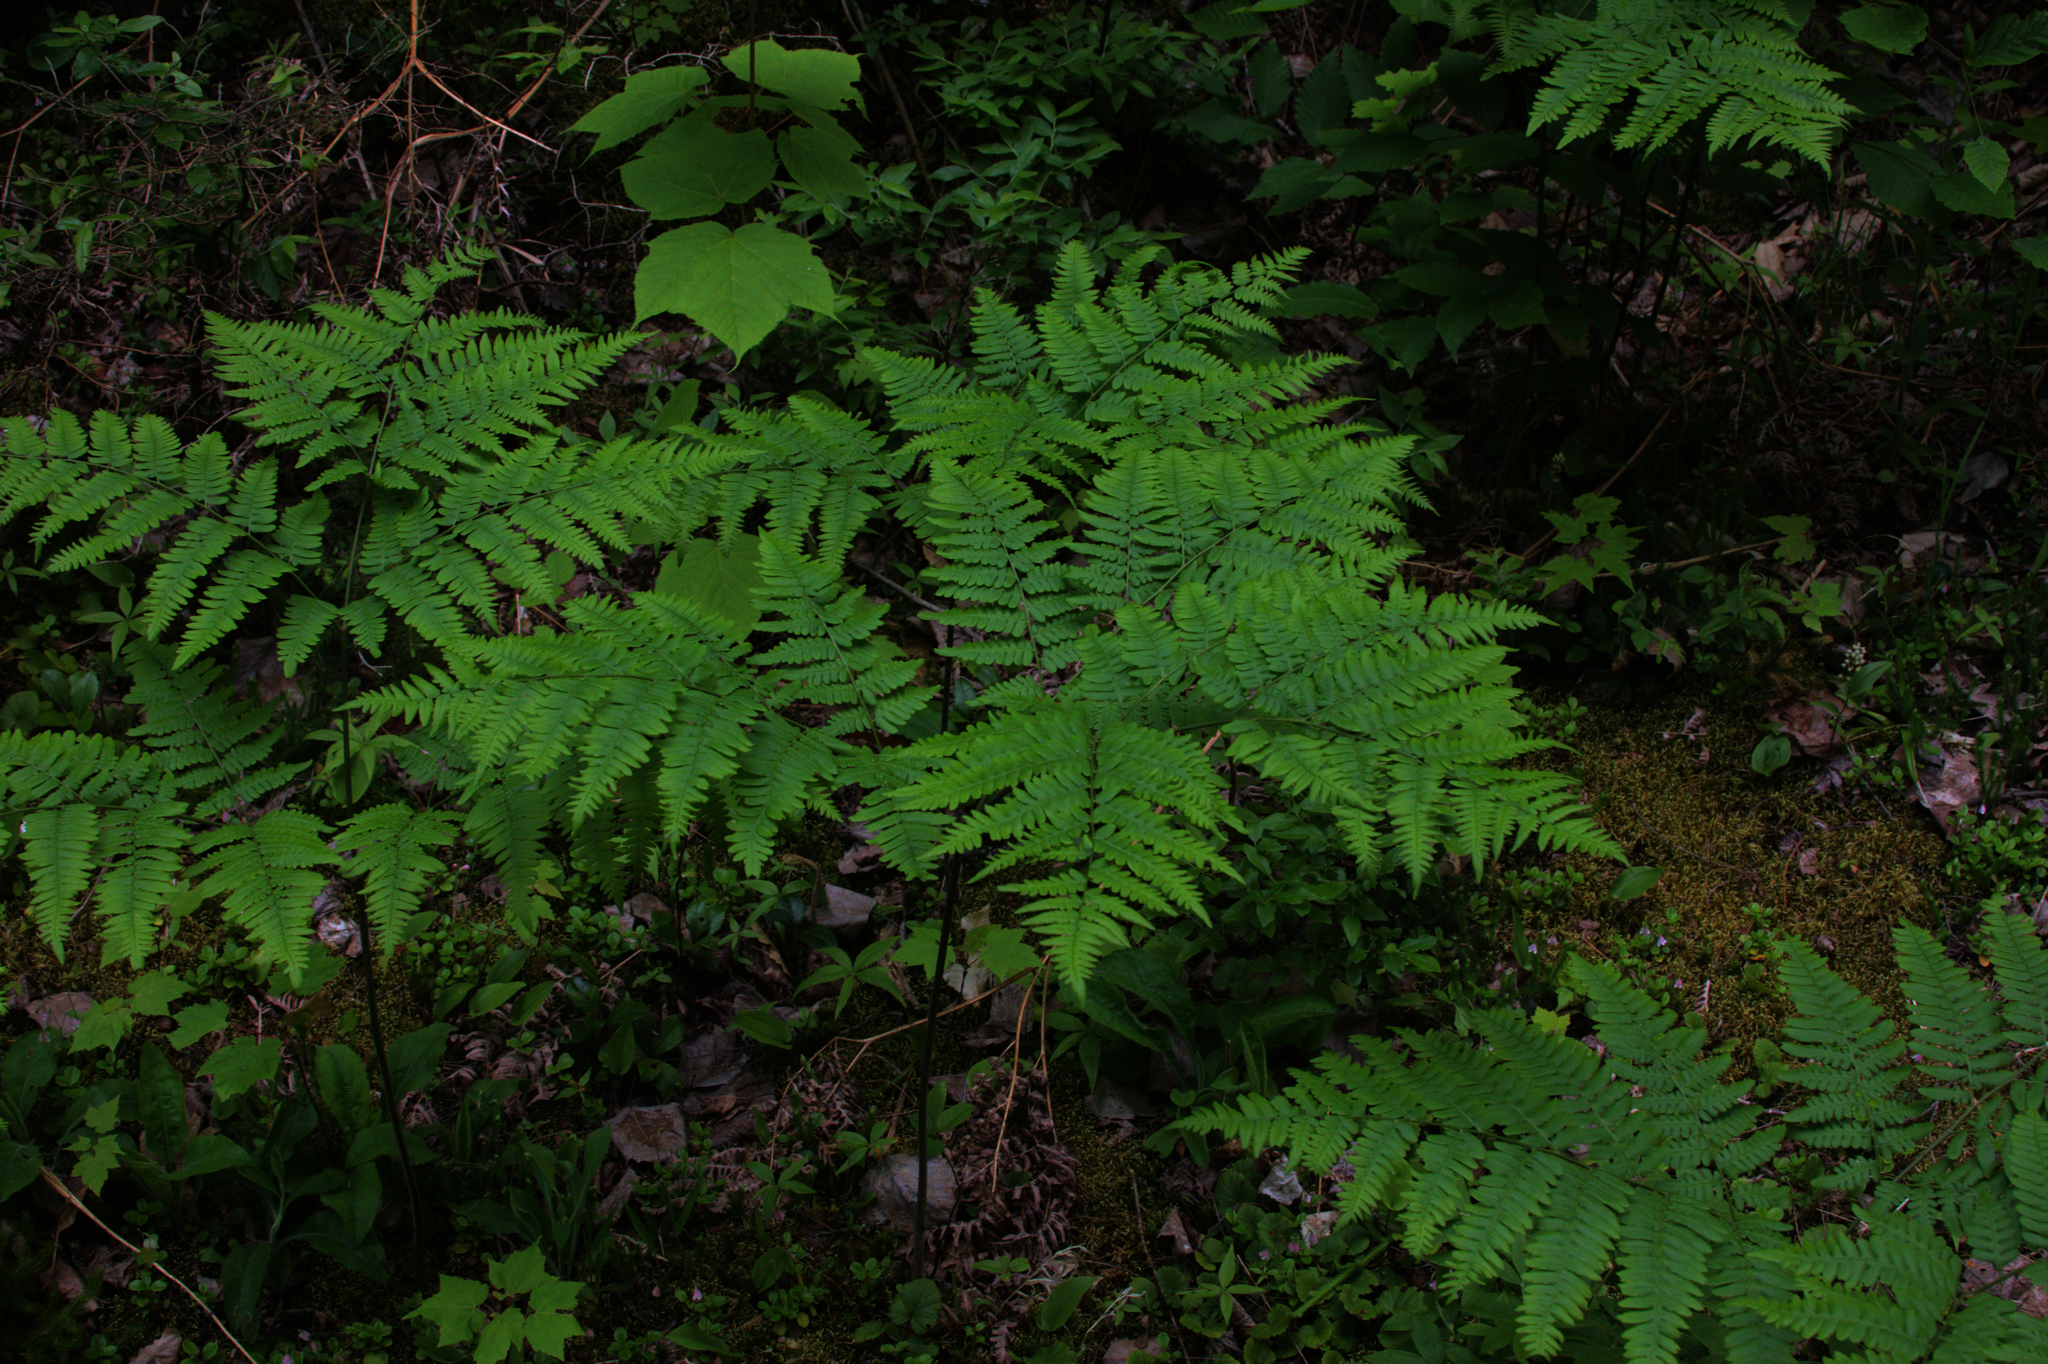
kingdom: Plantae
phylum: Tracheophyta
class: Magnoliopsida
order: Sapindales
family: Sapindaceae
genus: Acer
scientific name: Acer pensylvanicum
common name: Moosewood
